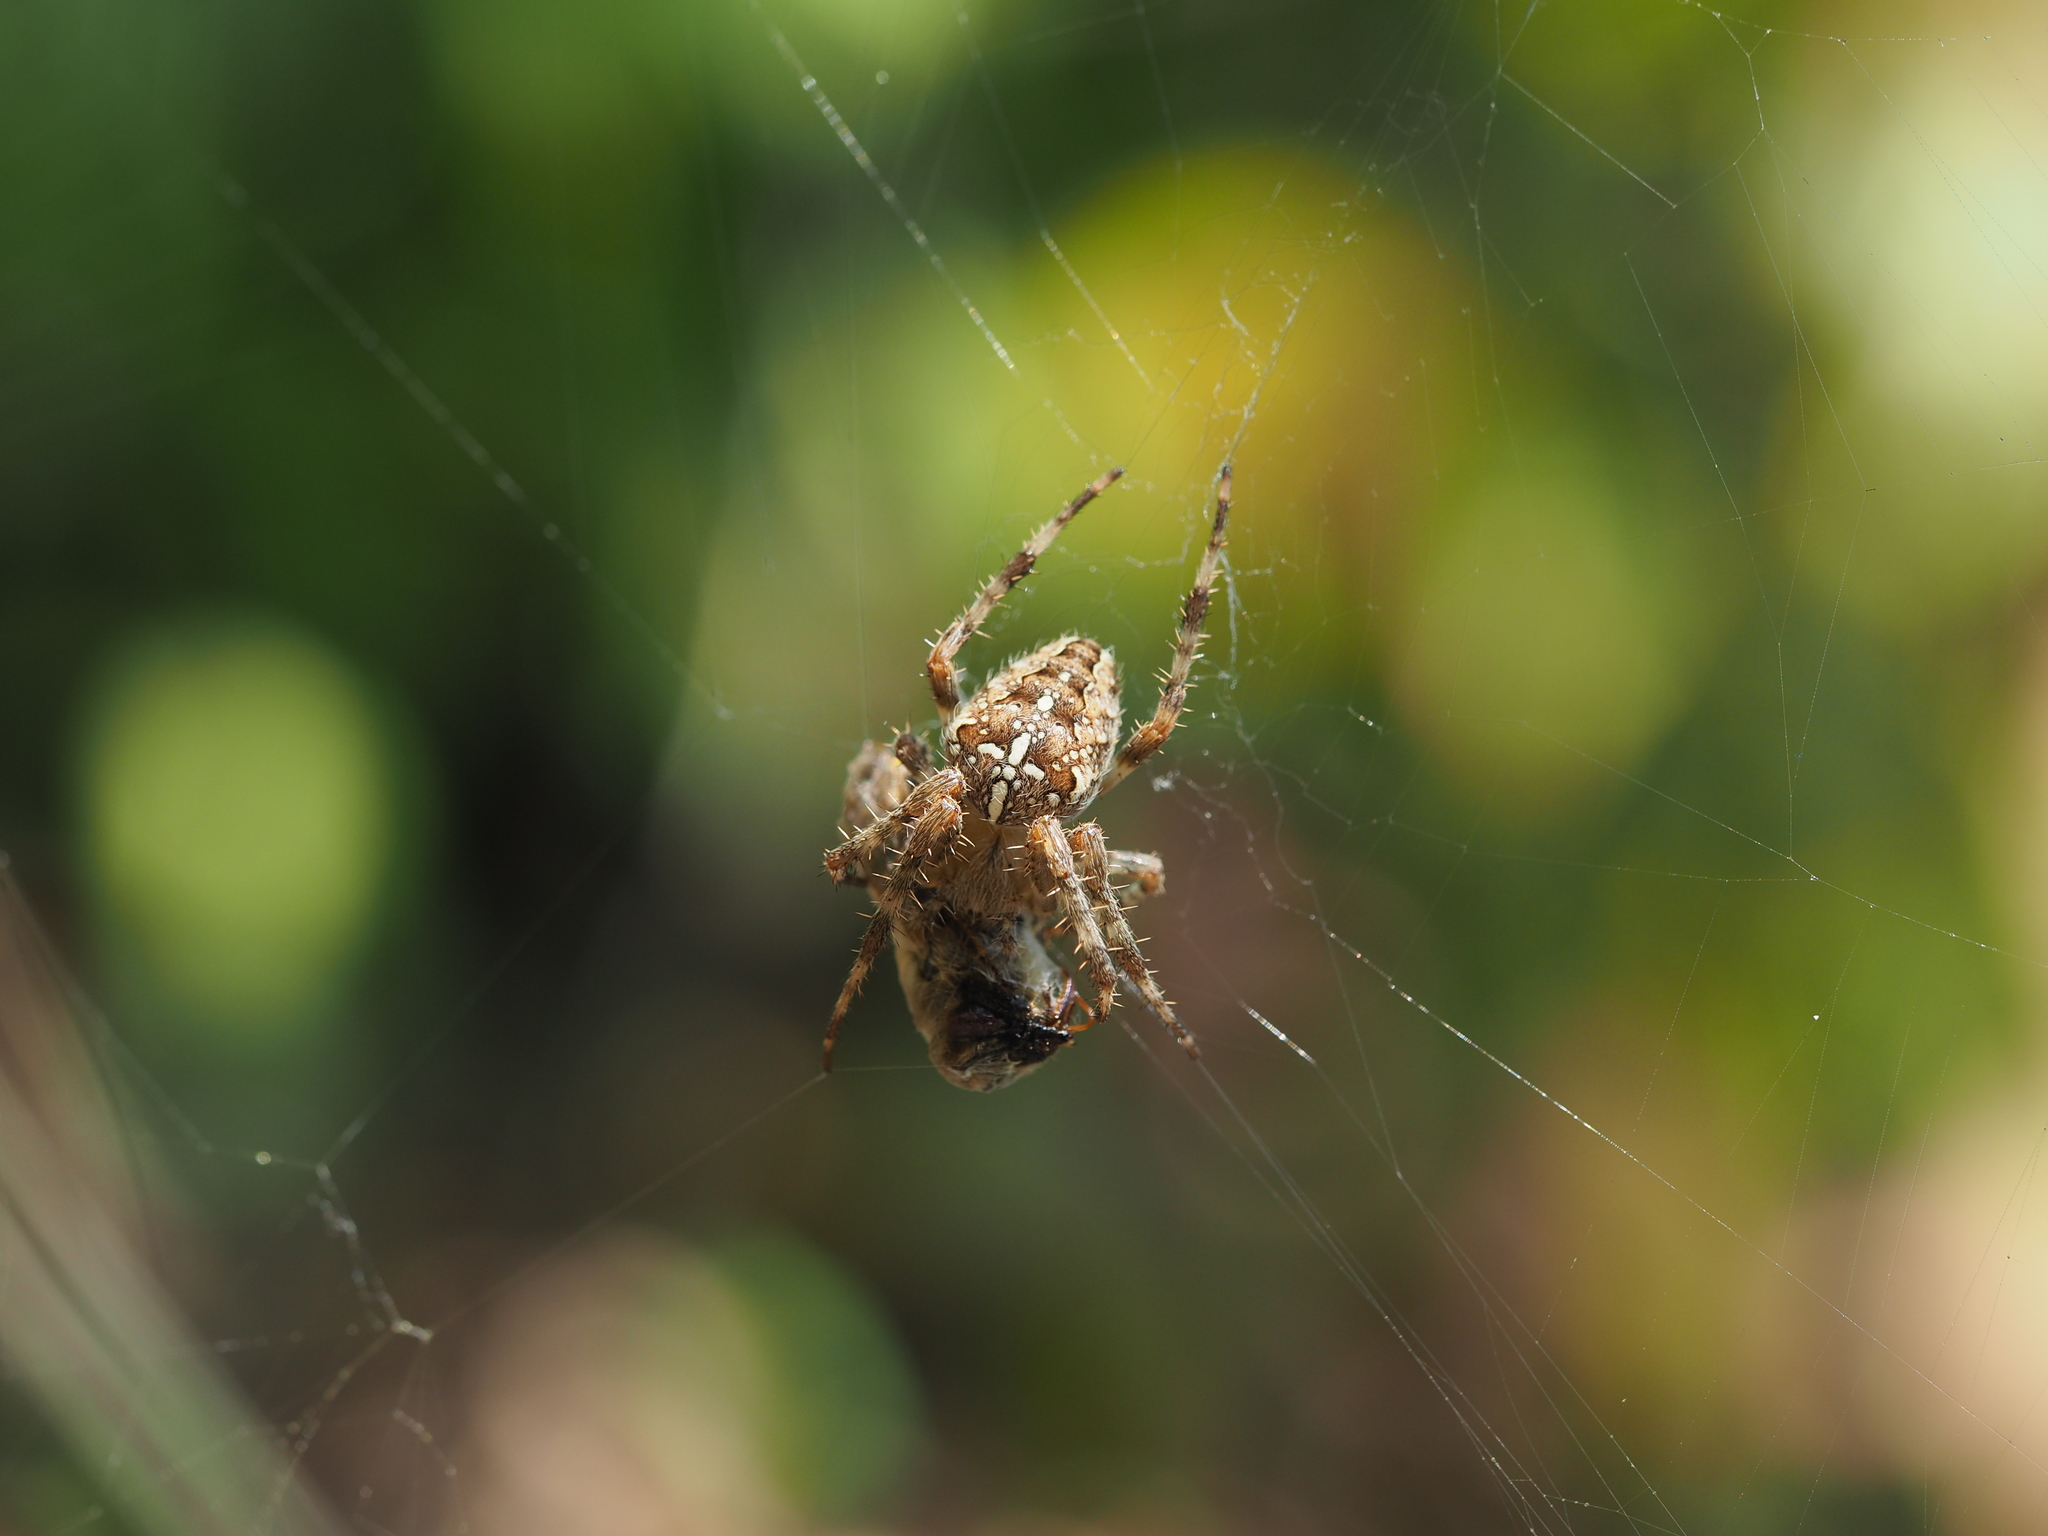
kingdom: Animalia
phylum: Arthropoda
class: Arachnida
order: Araneae
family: Araneidae
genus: Araneus
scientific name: Araneus diadematus
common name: Cross orbweaver
